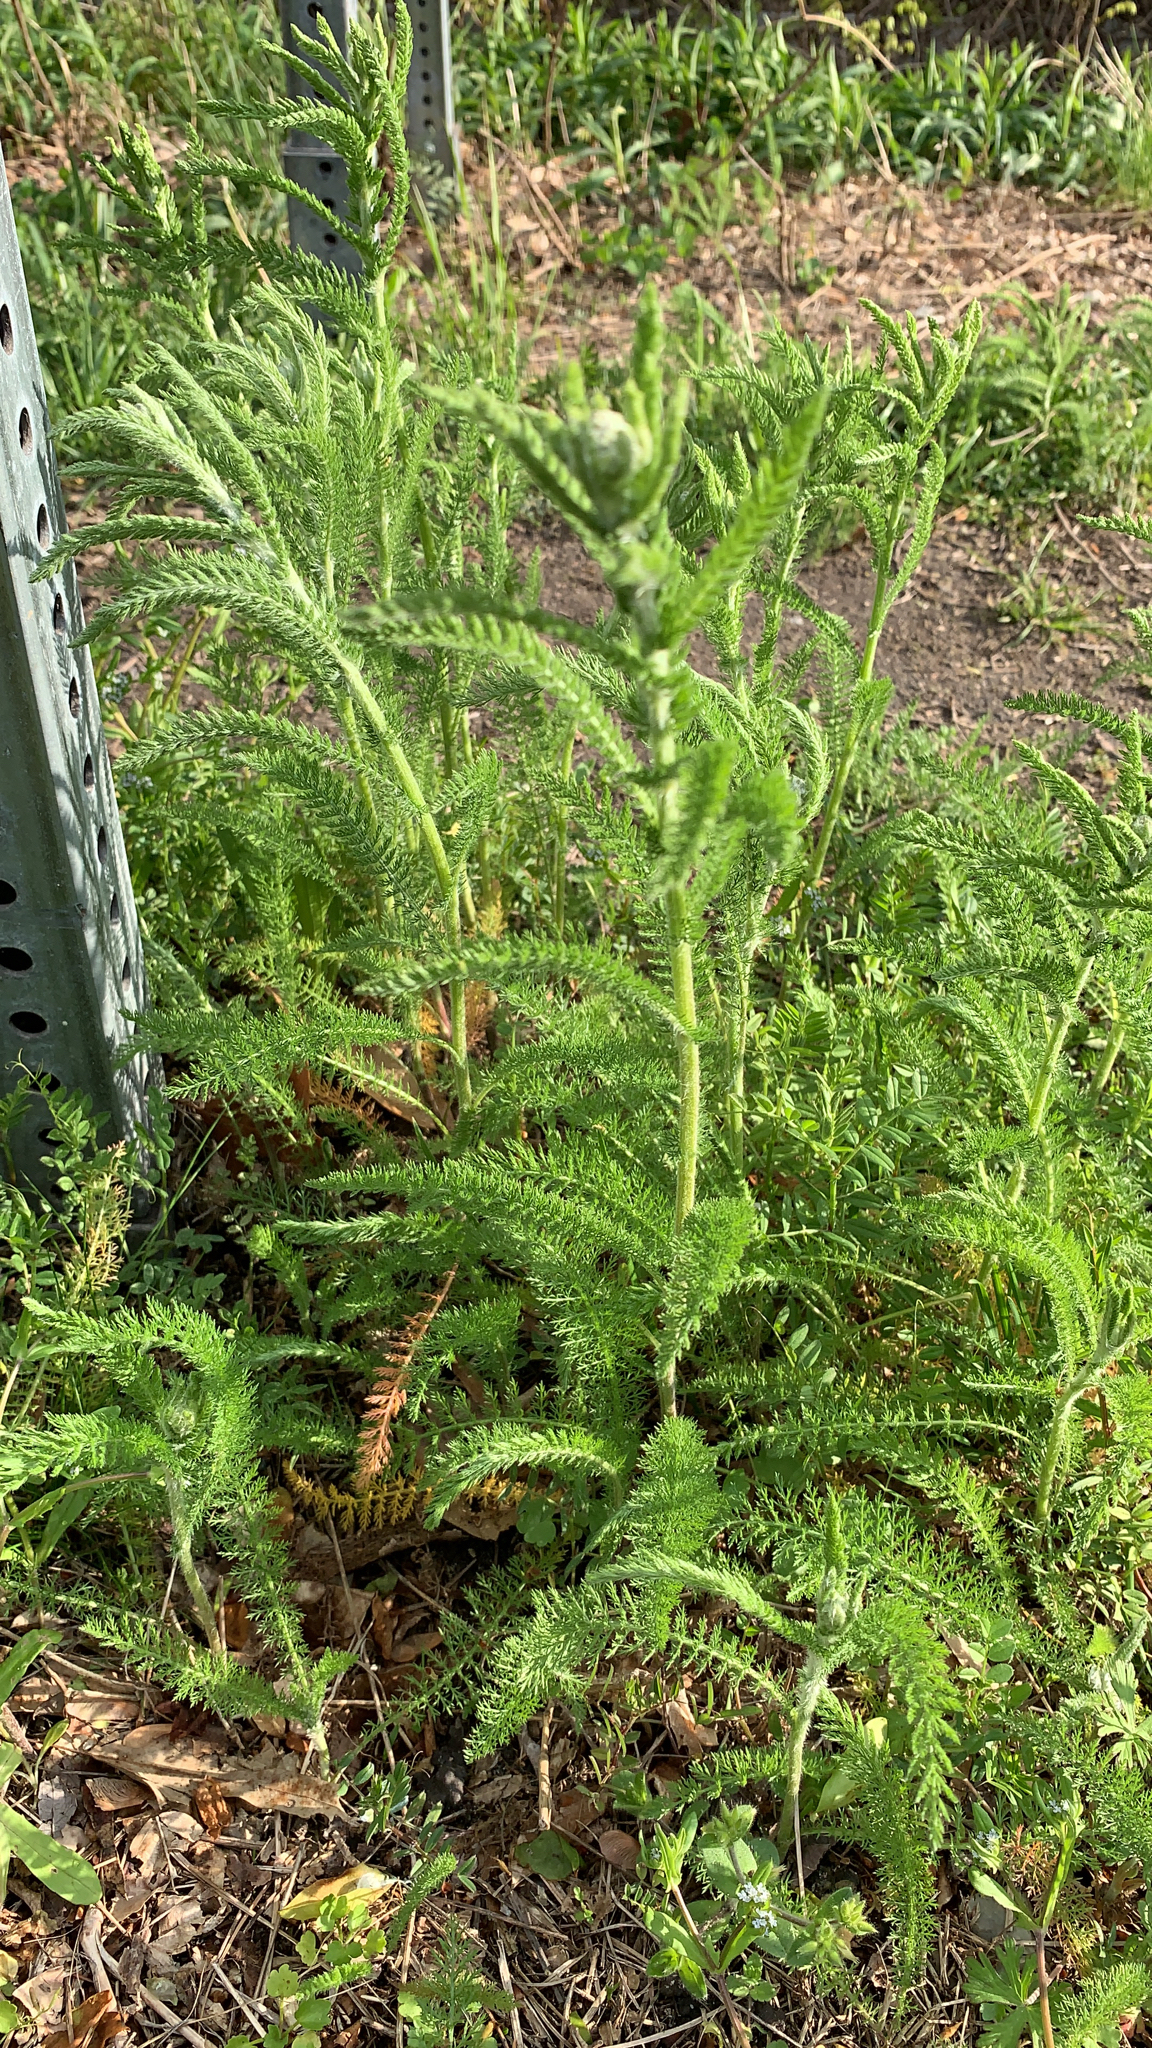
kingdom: Plantae
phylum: Tracheophyta
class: Magnoliopsida
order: Asterales
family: Asteraceae
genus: Achillea
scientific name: Achillea millefolium
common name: Yarrow
